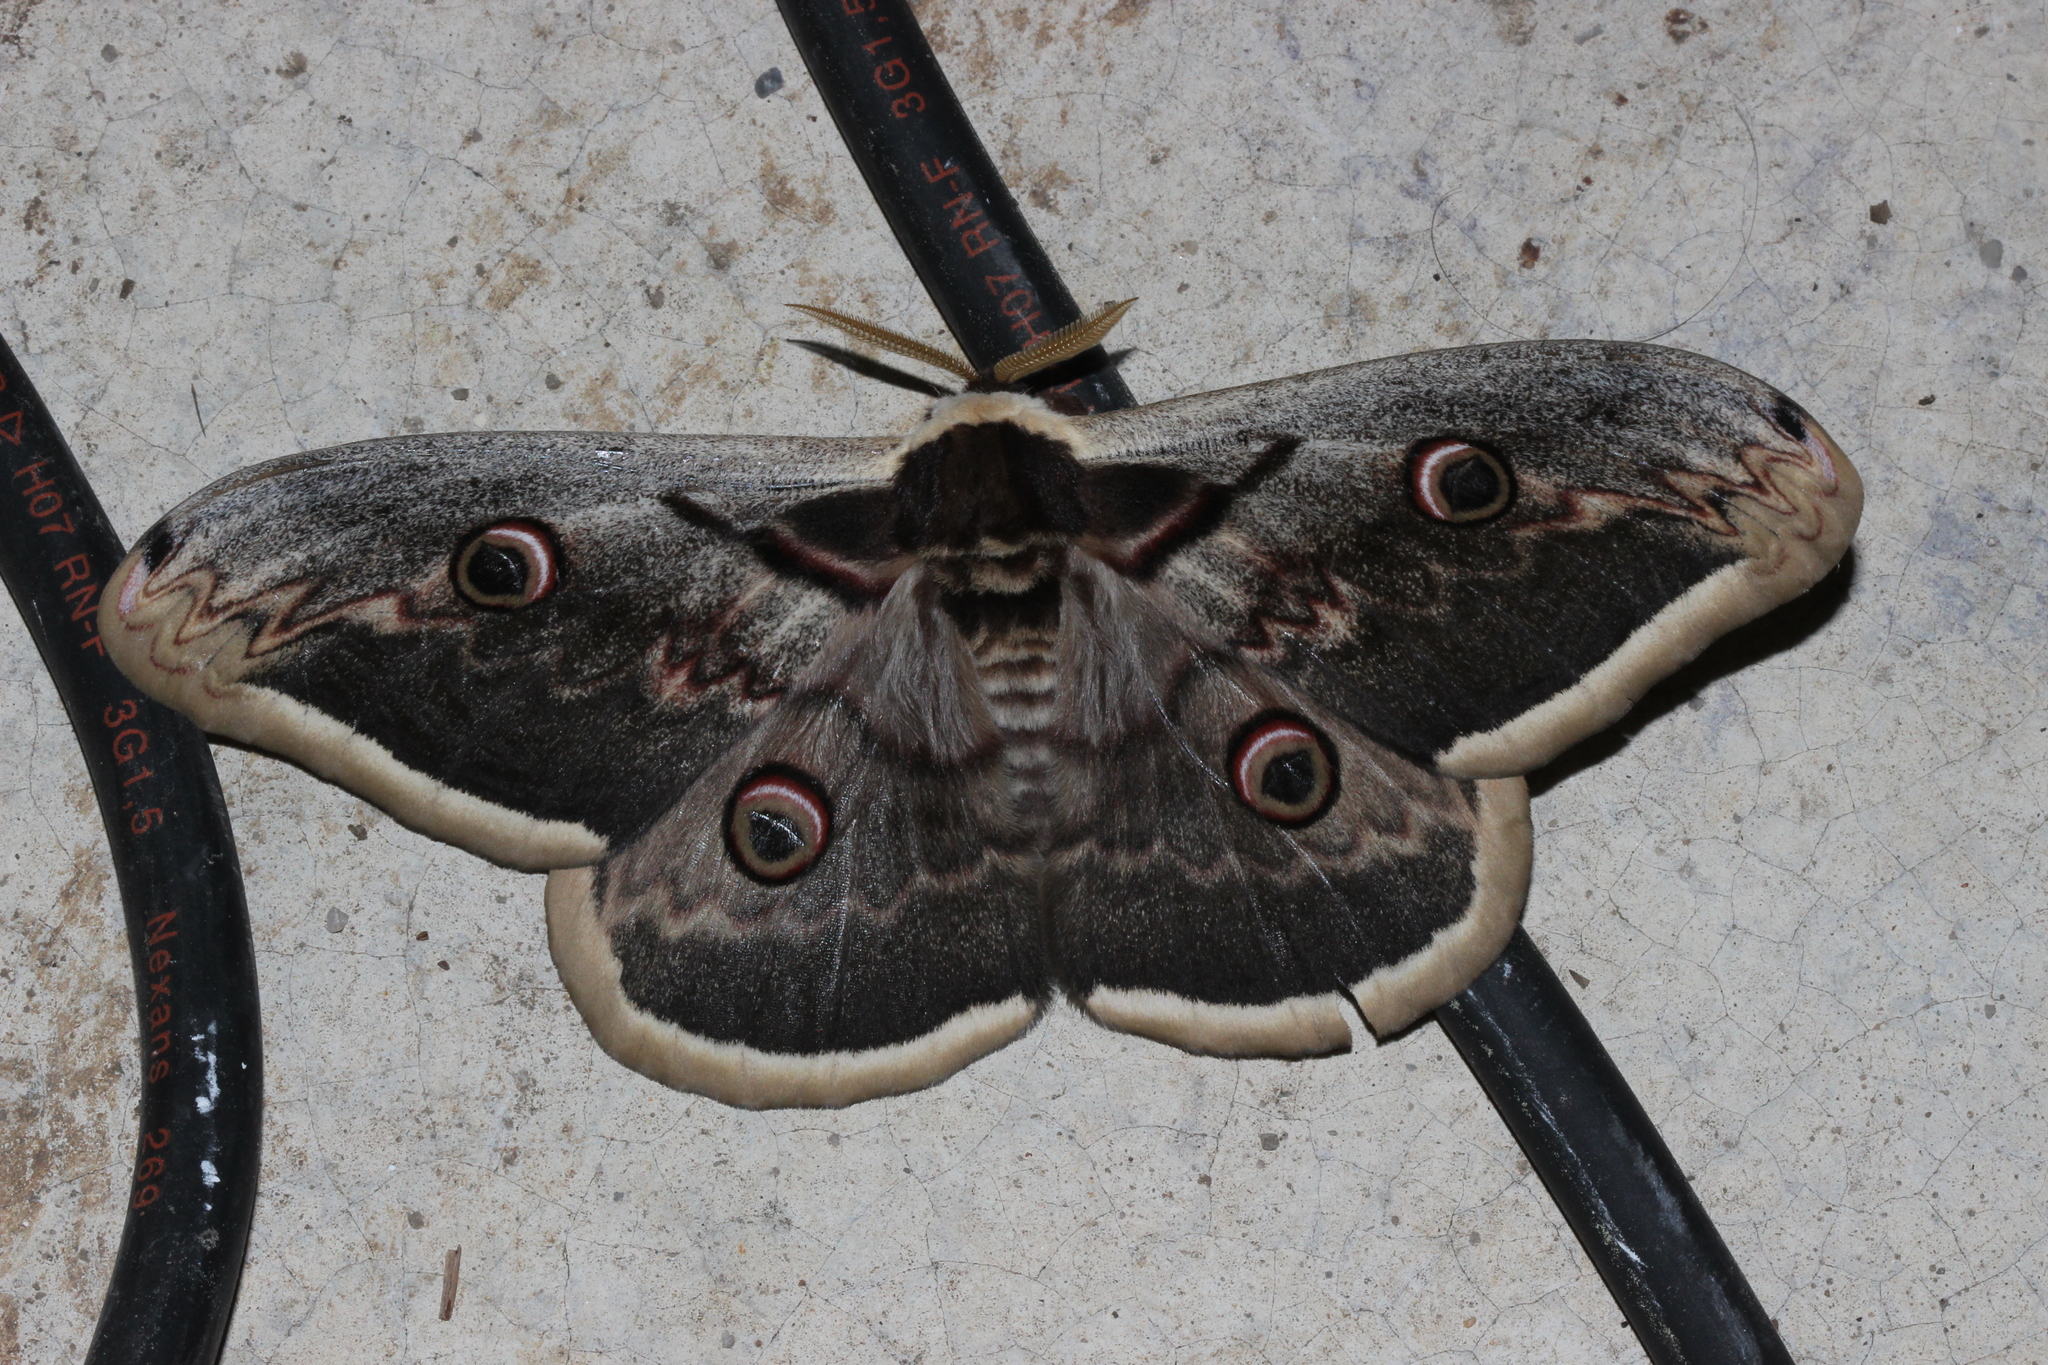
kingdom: Animalia
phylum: Arthropoda
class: Insecta
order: Lepidoptera
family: Saturniidae
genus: Saturnia
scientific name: Saturnia pyri
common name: Great peacock moth
